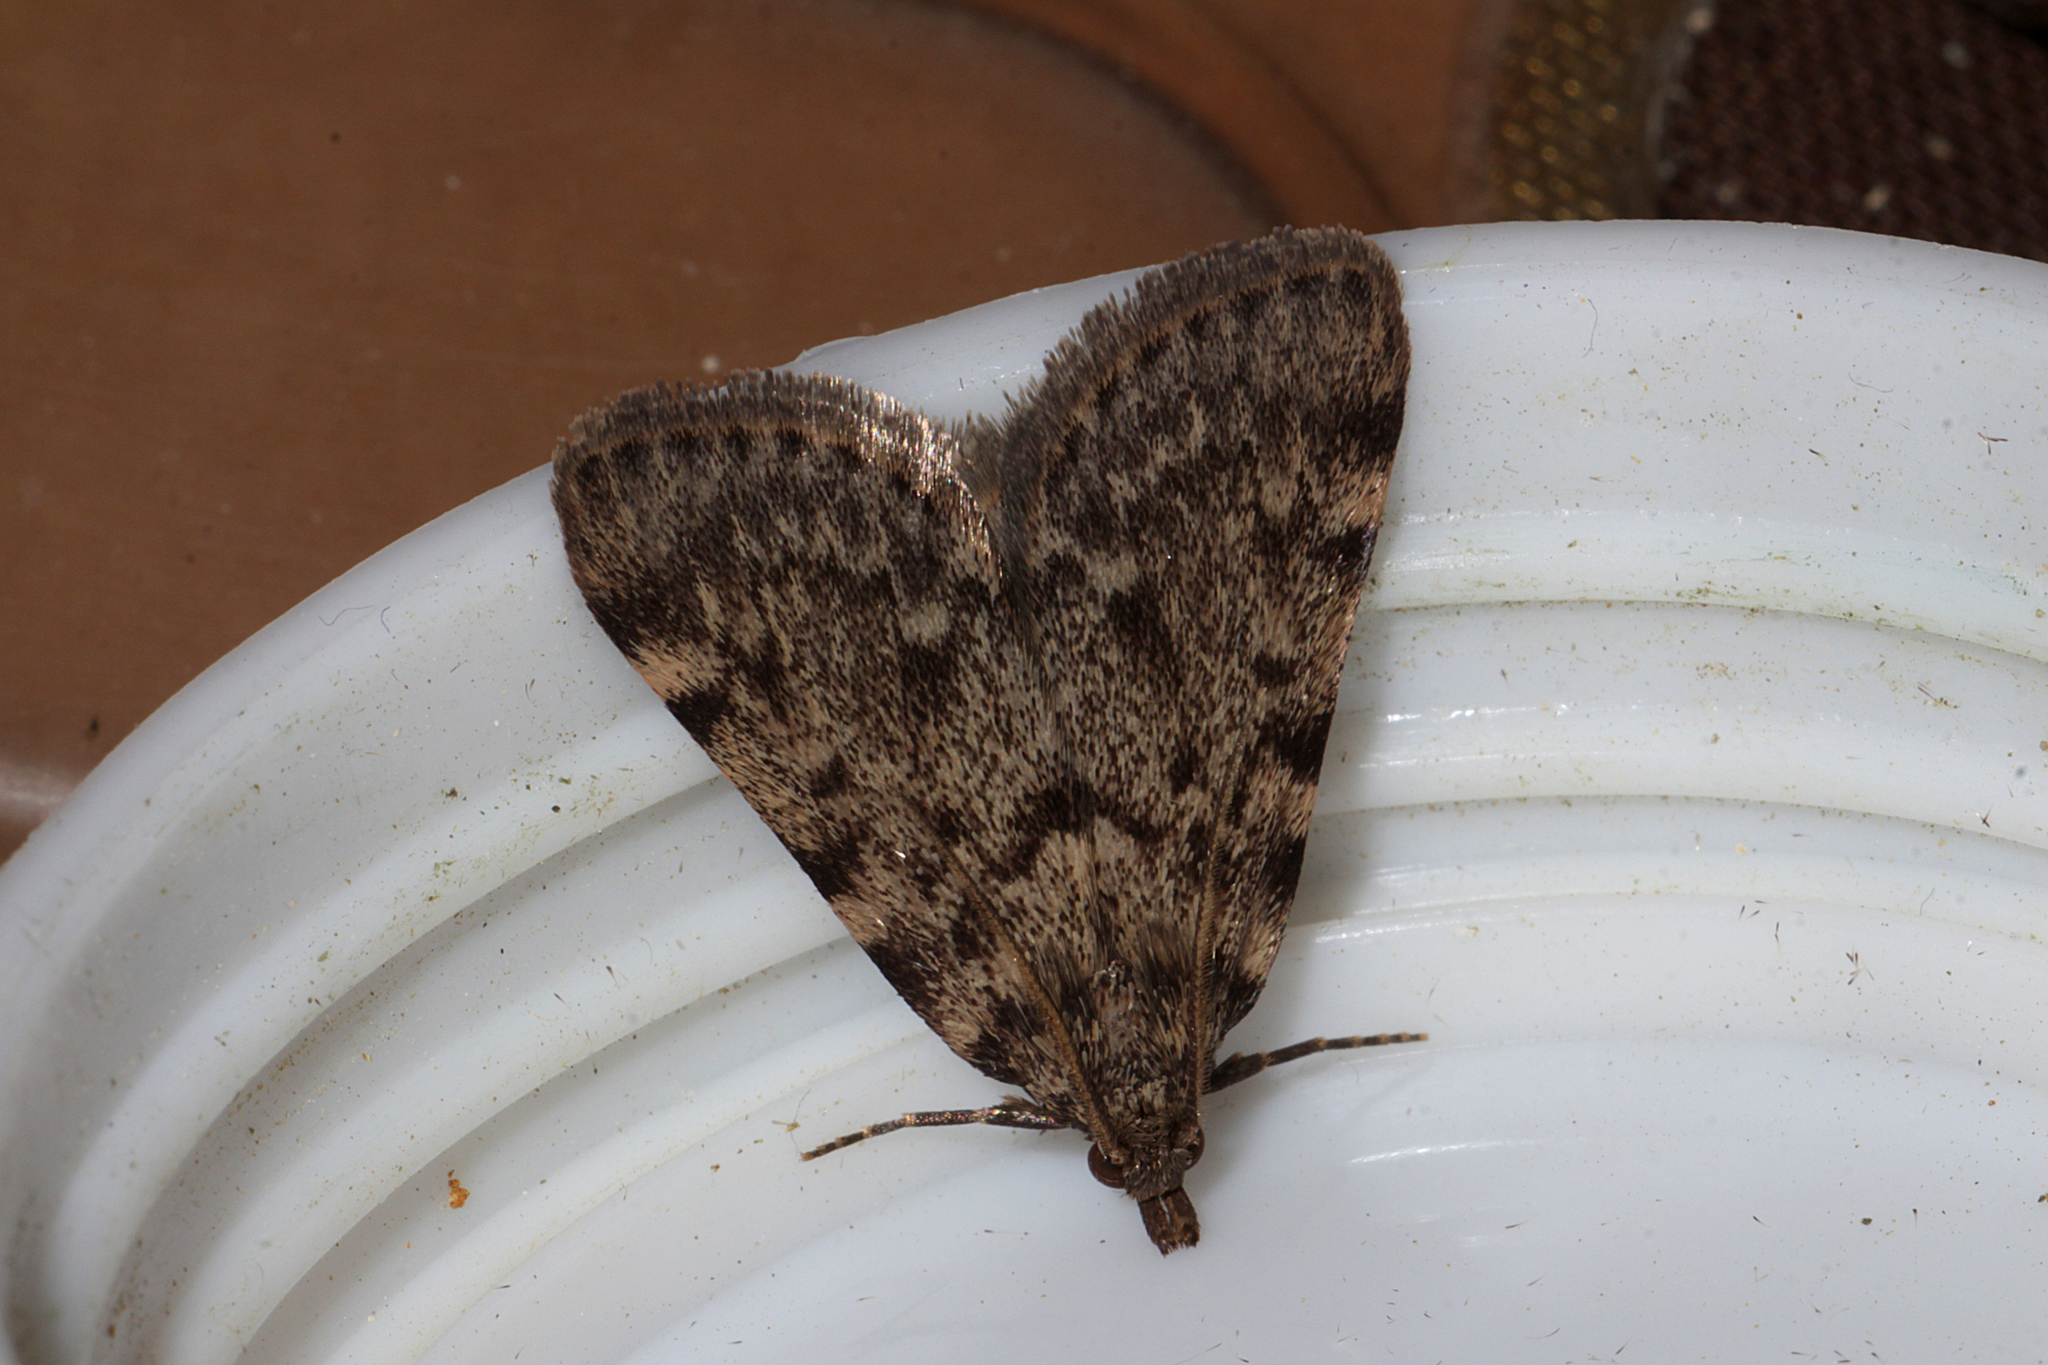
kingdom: Animalia
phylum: Arthropoda
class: Insecta
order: Lepidoptera
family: Pyralidae
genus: Aglossa
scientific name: Aglossa pinguinalis
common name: Large tabby
